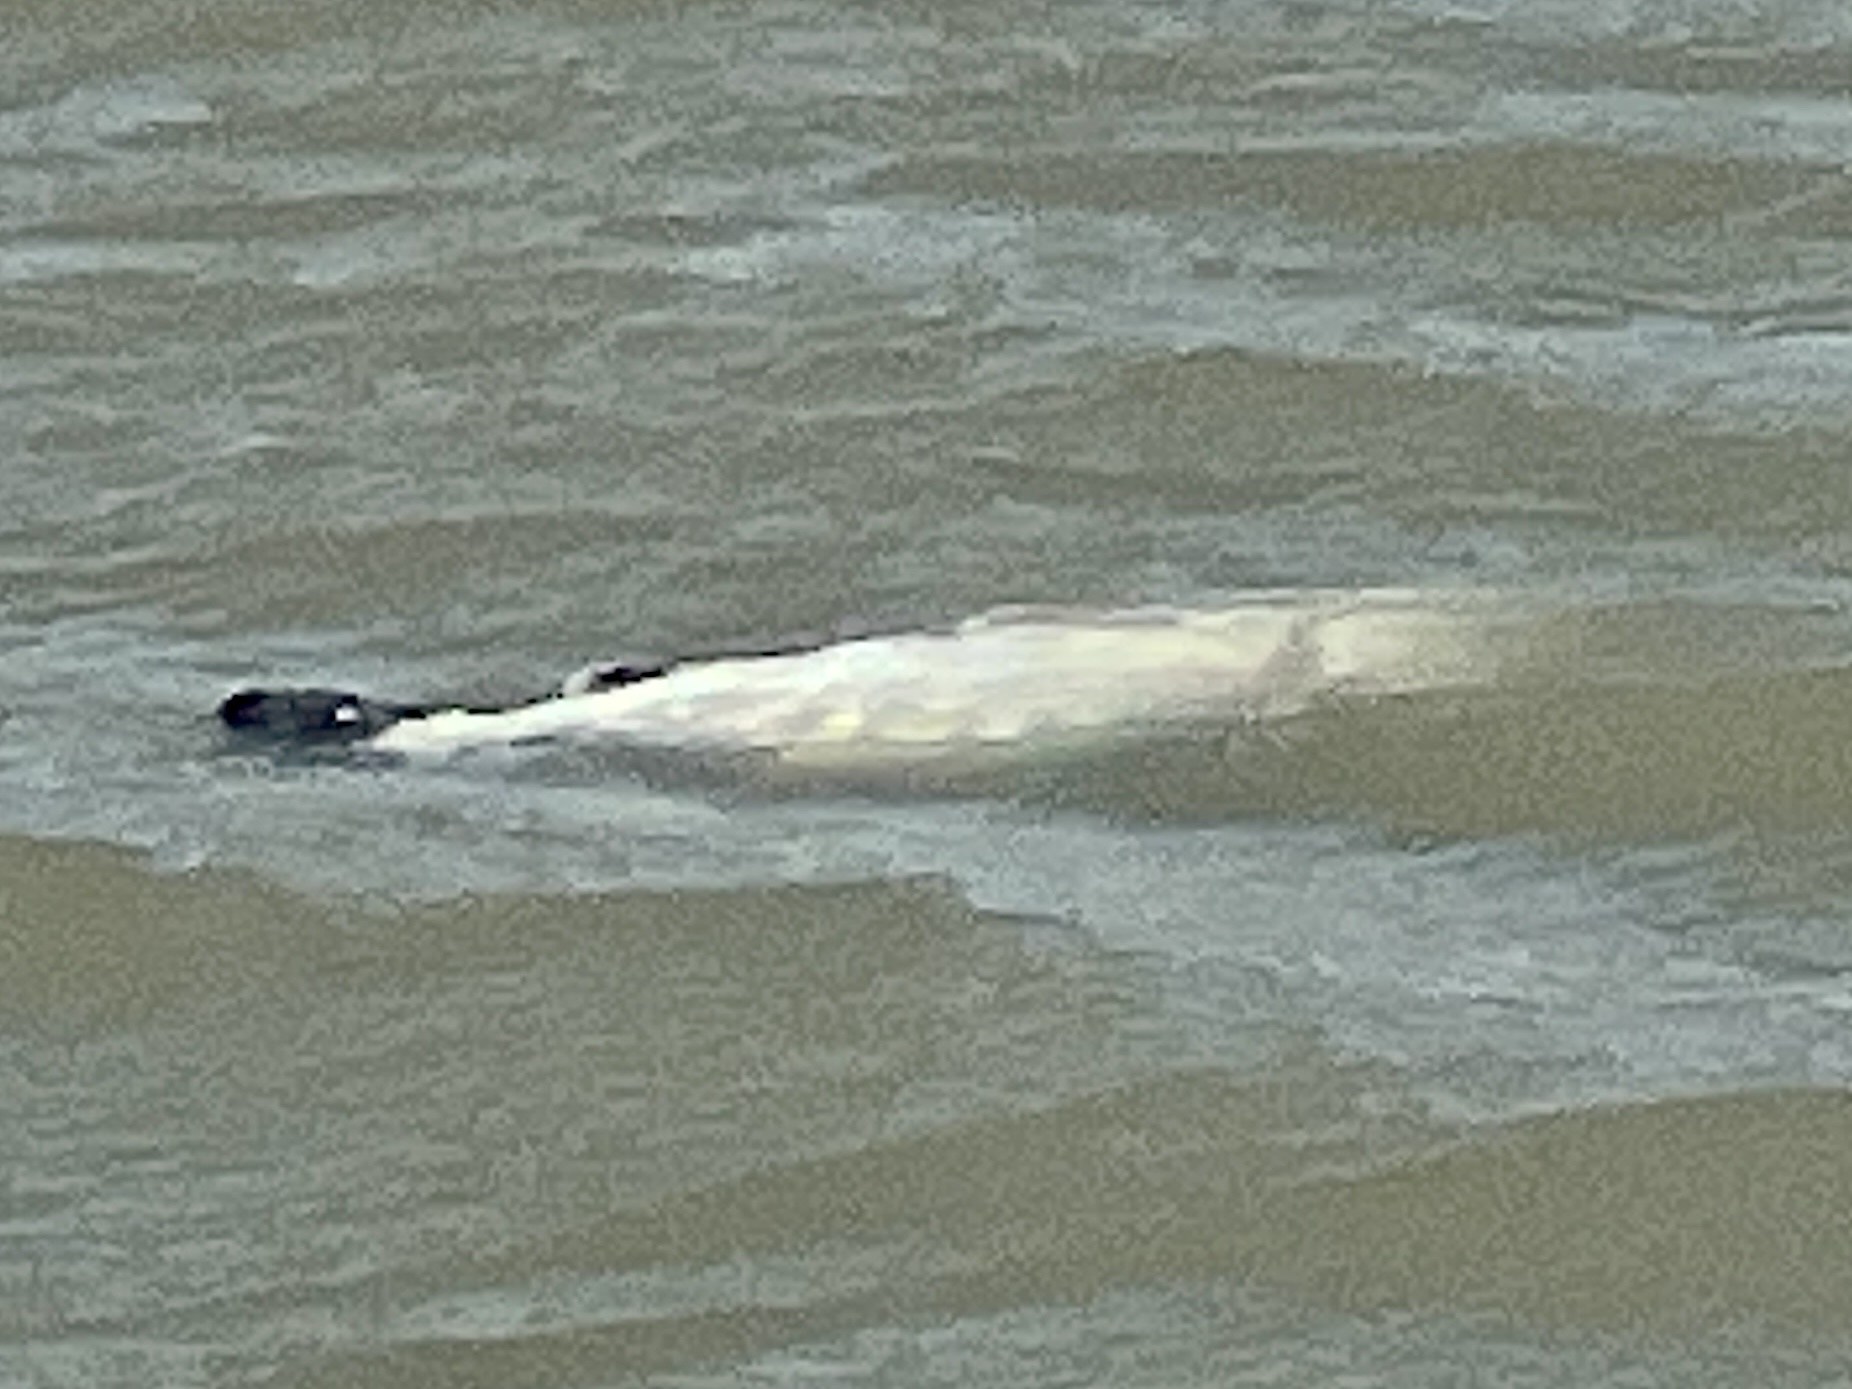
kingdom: Animalia
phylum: Chordata
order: Perciformes
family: Sciaenidae
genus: Cynoscion
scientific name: Cynoscion nebulosus
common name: Spotted seatrout
